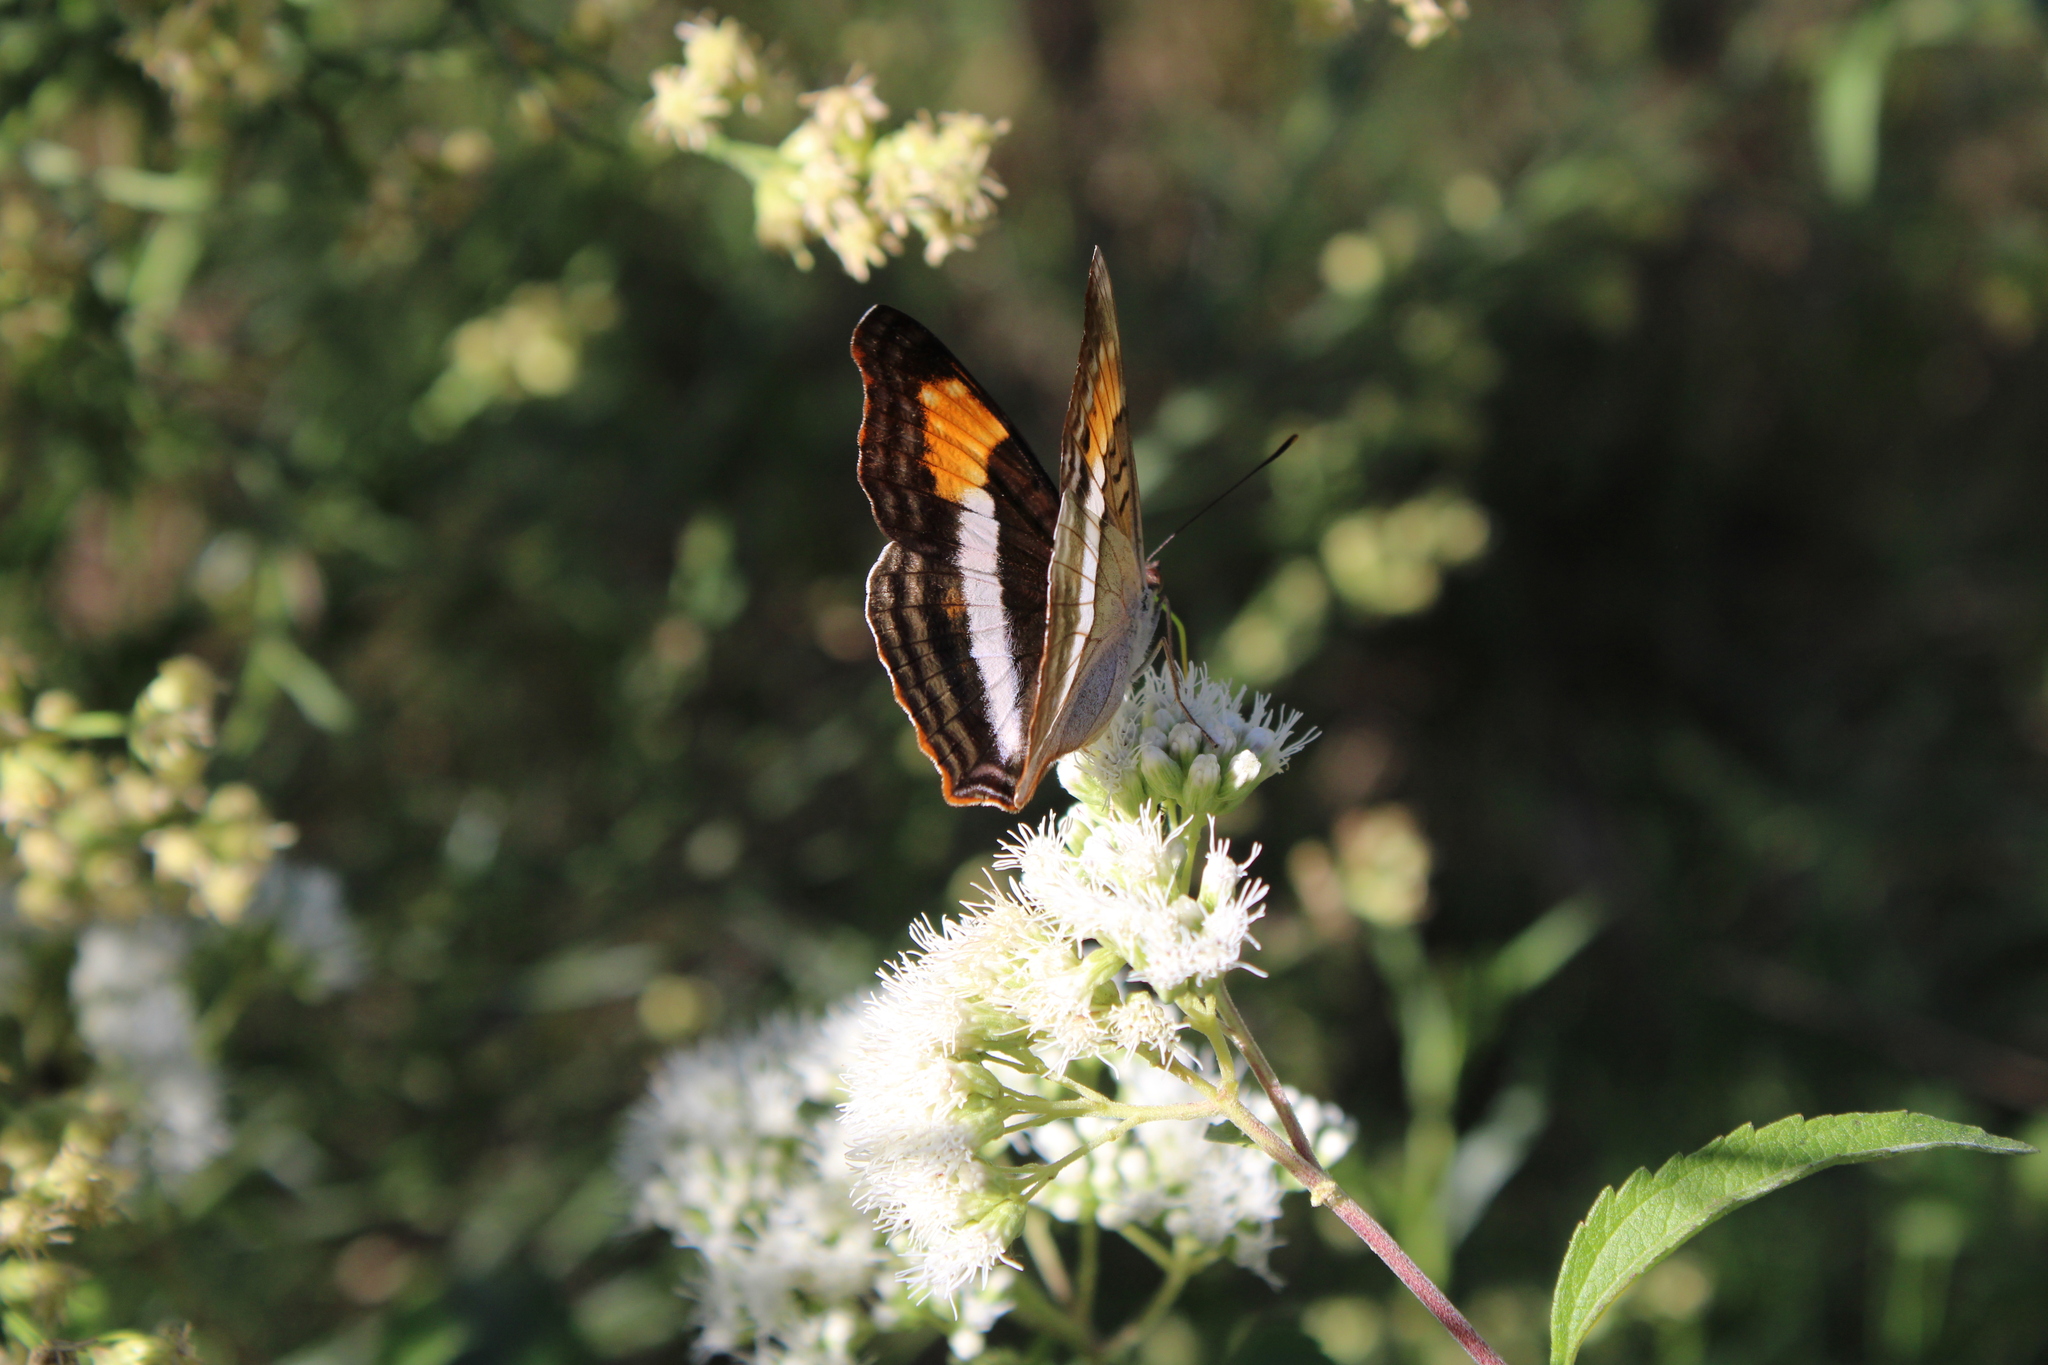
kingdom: Animalia
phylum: Arthropoda
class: Insecta
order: Lepidoptera
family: Nymphalidae
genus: Doxocopa
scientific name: Doxocopa laurentia
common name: Turquoise emperor
